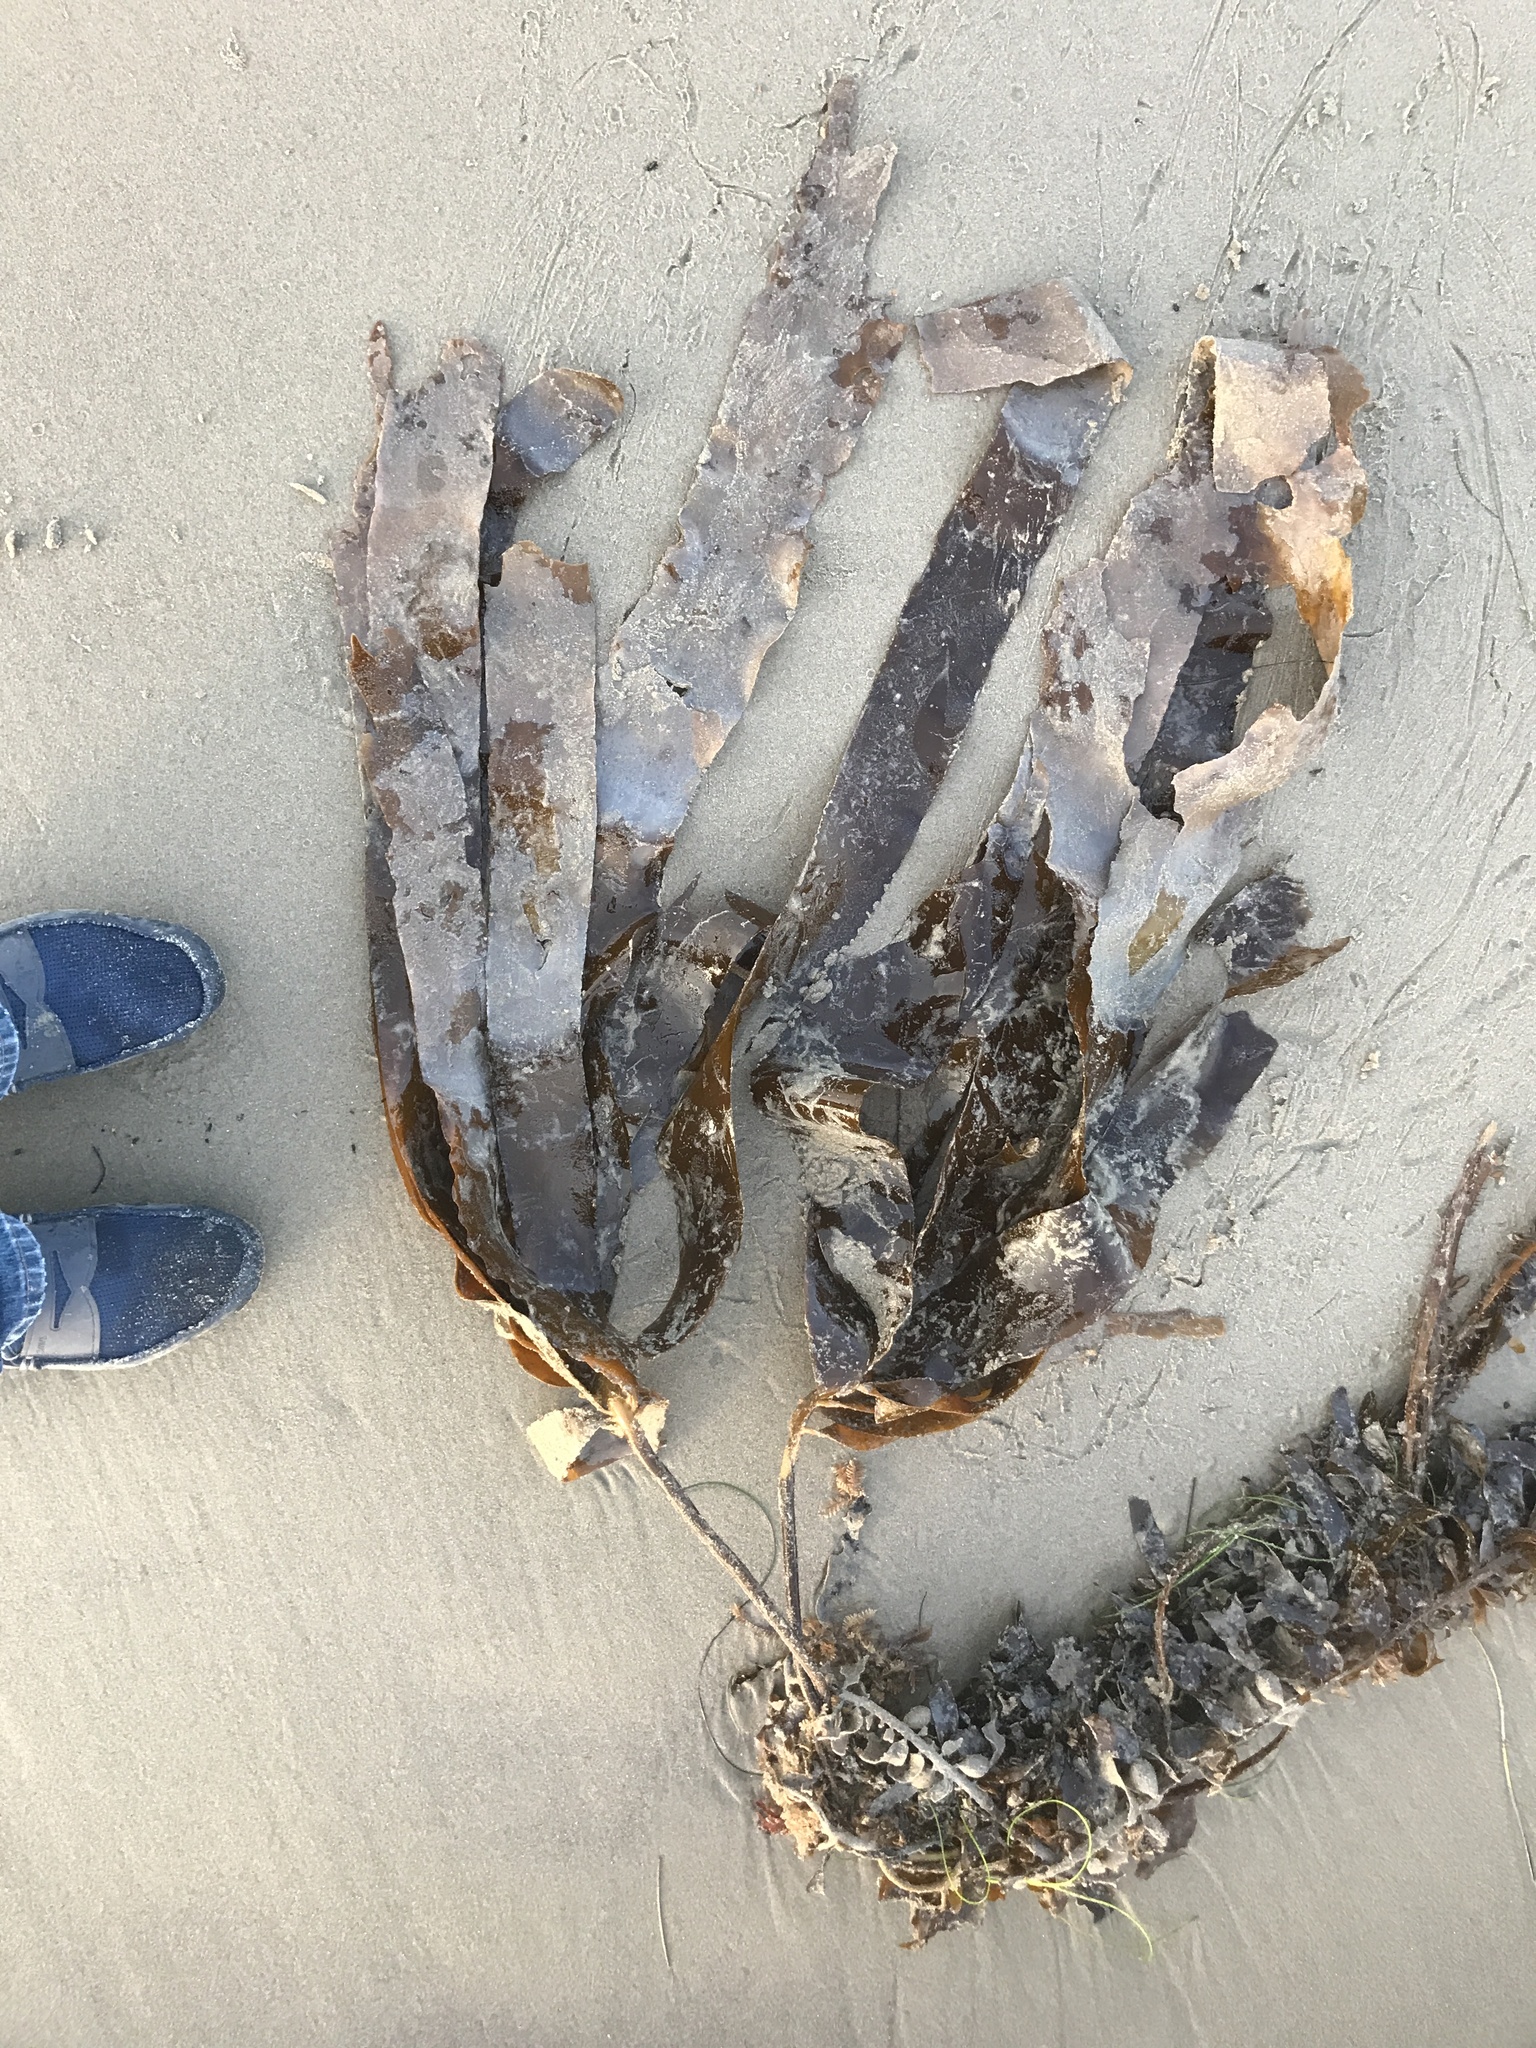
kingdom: Chromista
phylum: Ochrophyta
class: Phaeophyceae
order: Laminariales
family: Alariaceae
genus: Pterygophora
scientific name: Pterygophora californica
